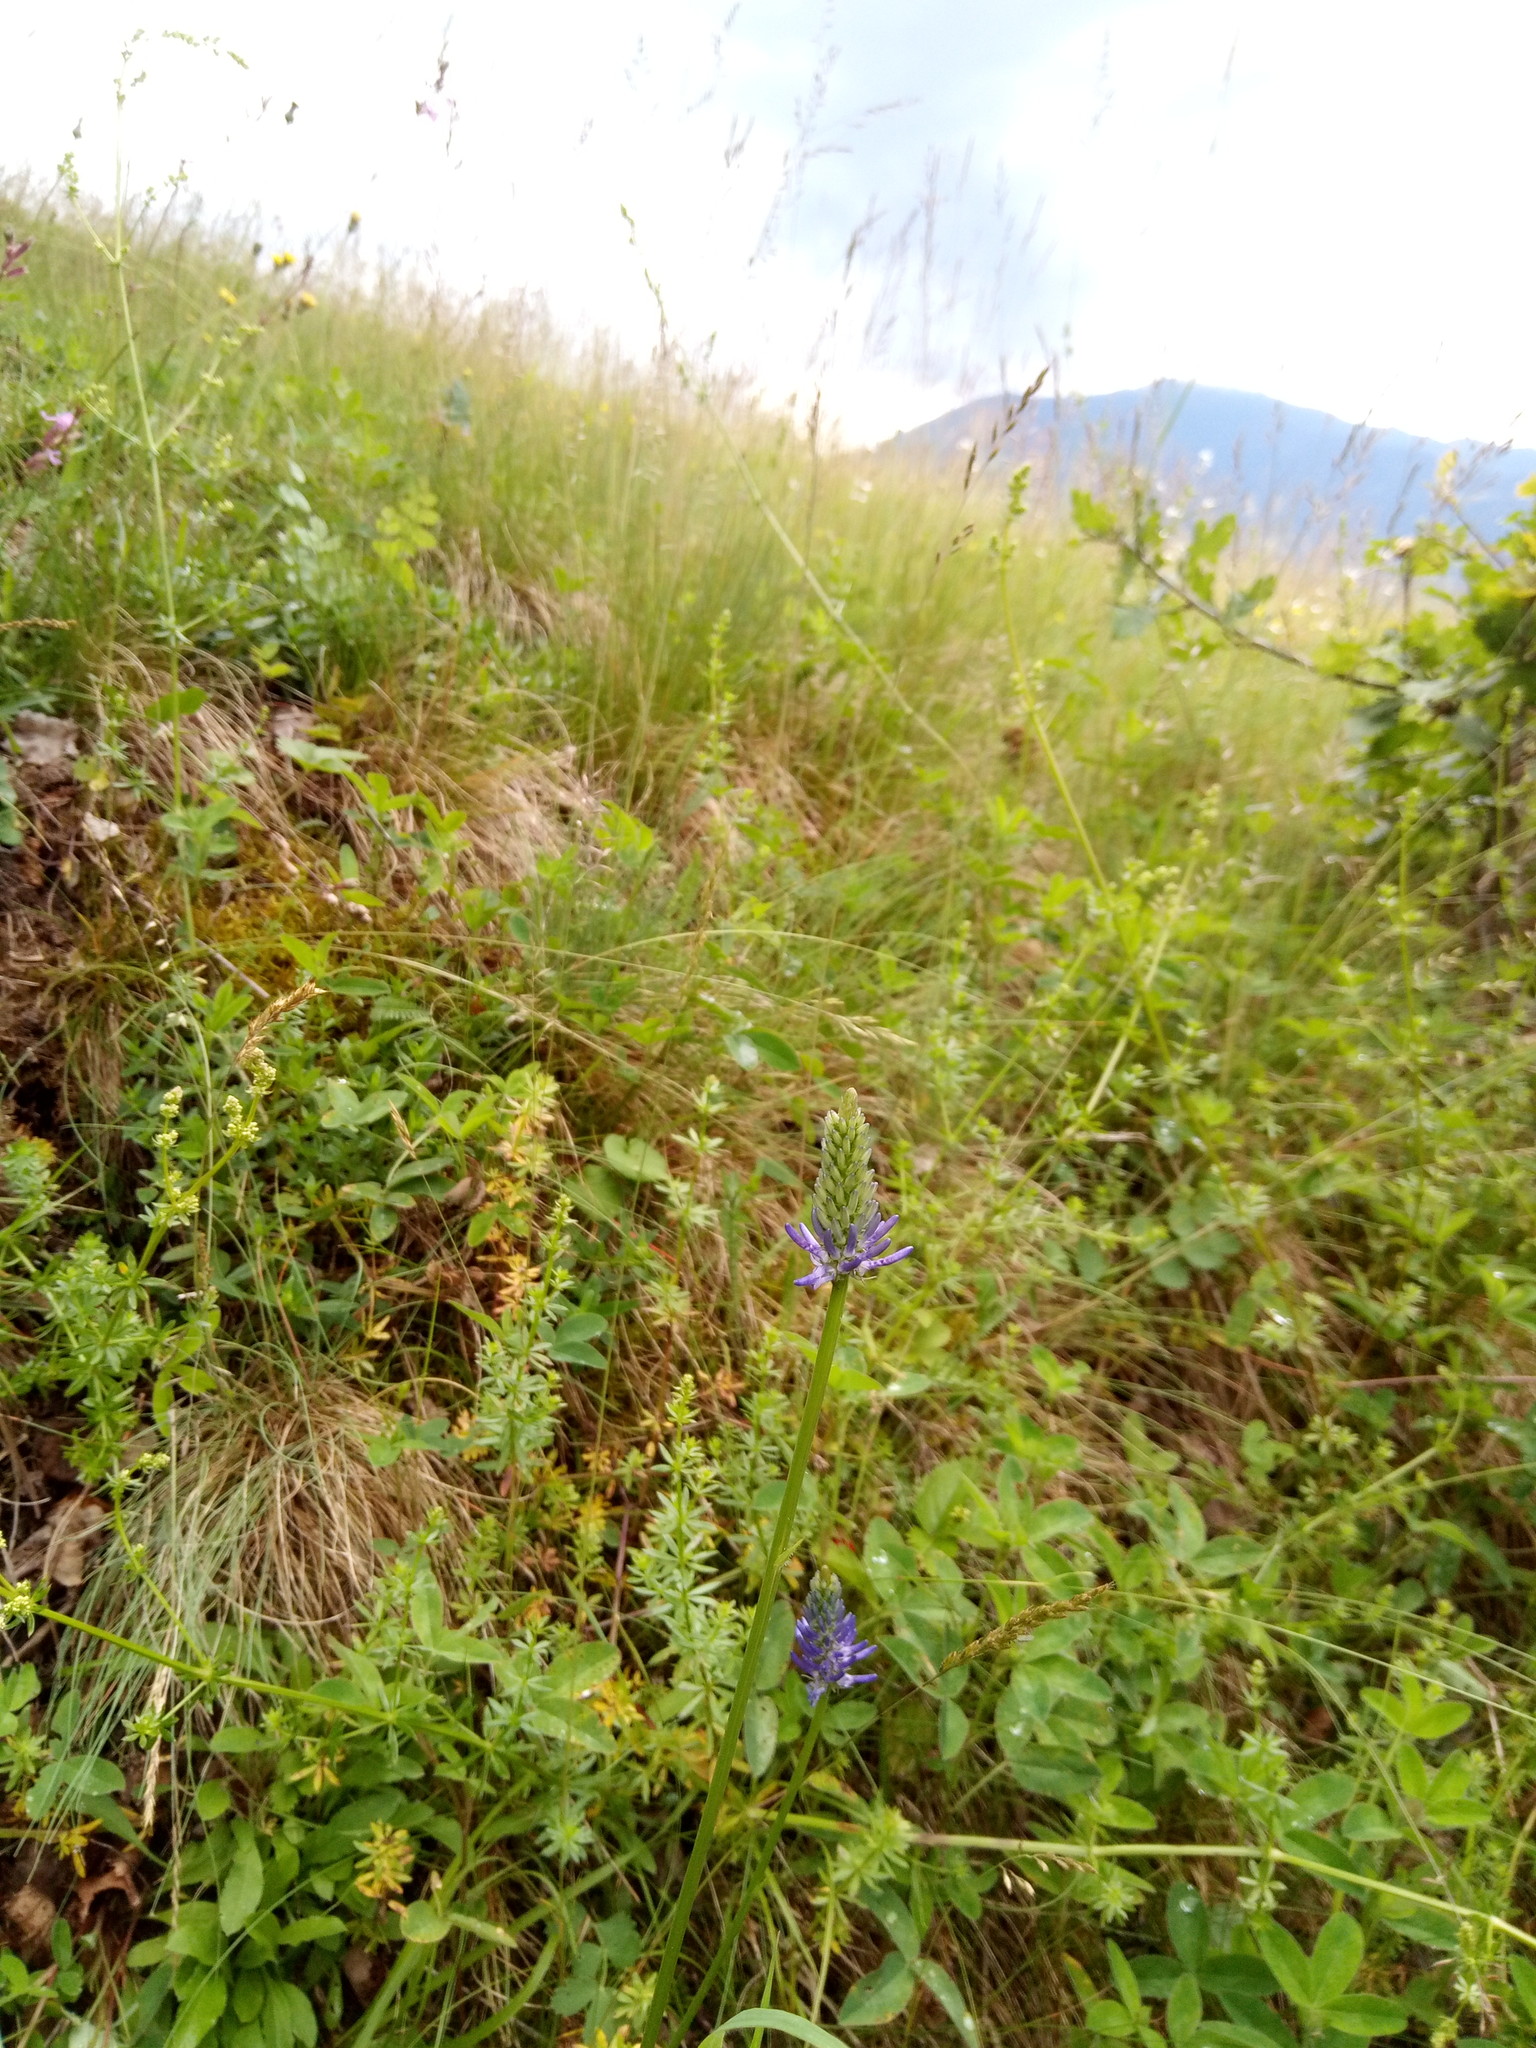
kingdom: Plantae
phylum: Tracheophyta
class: Magnoliopsida
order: Asterales
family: Campanulaceae
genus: Phyteuma
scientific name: Phyteuma persicifolium
